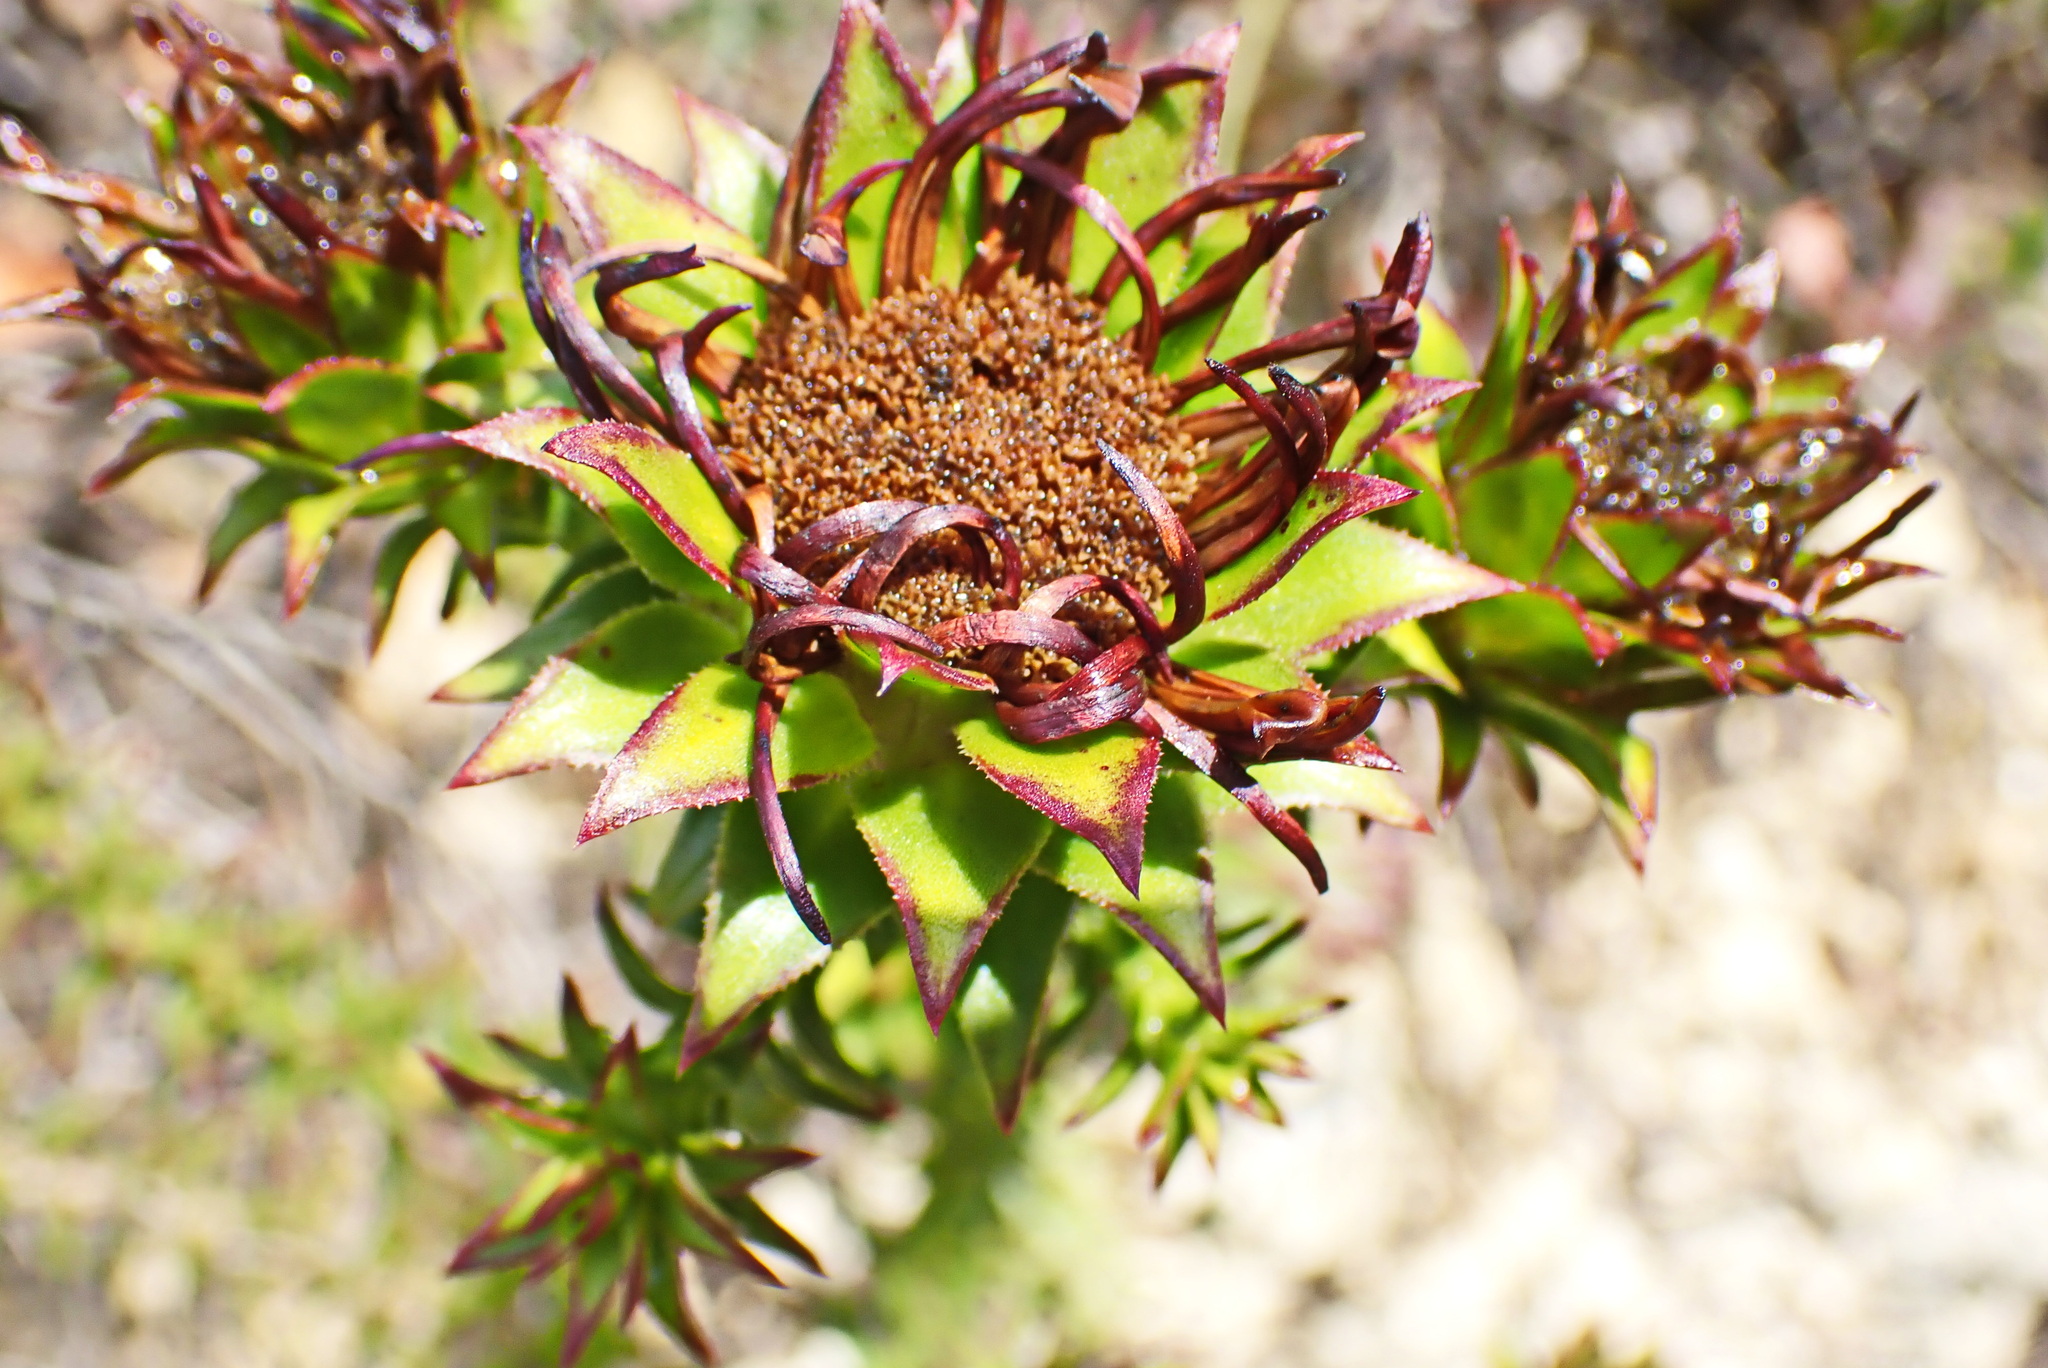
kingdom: Plantae
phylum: Tracheophyta
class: Magnoliopsida
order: Asterales
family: Asteraceae
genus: Oedera
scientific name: Oedera imbricata
